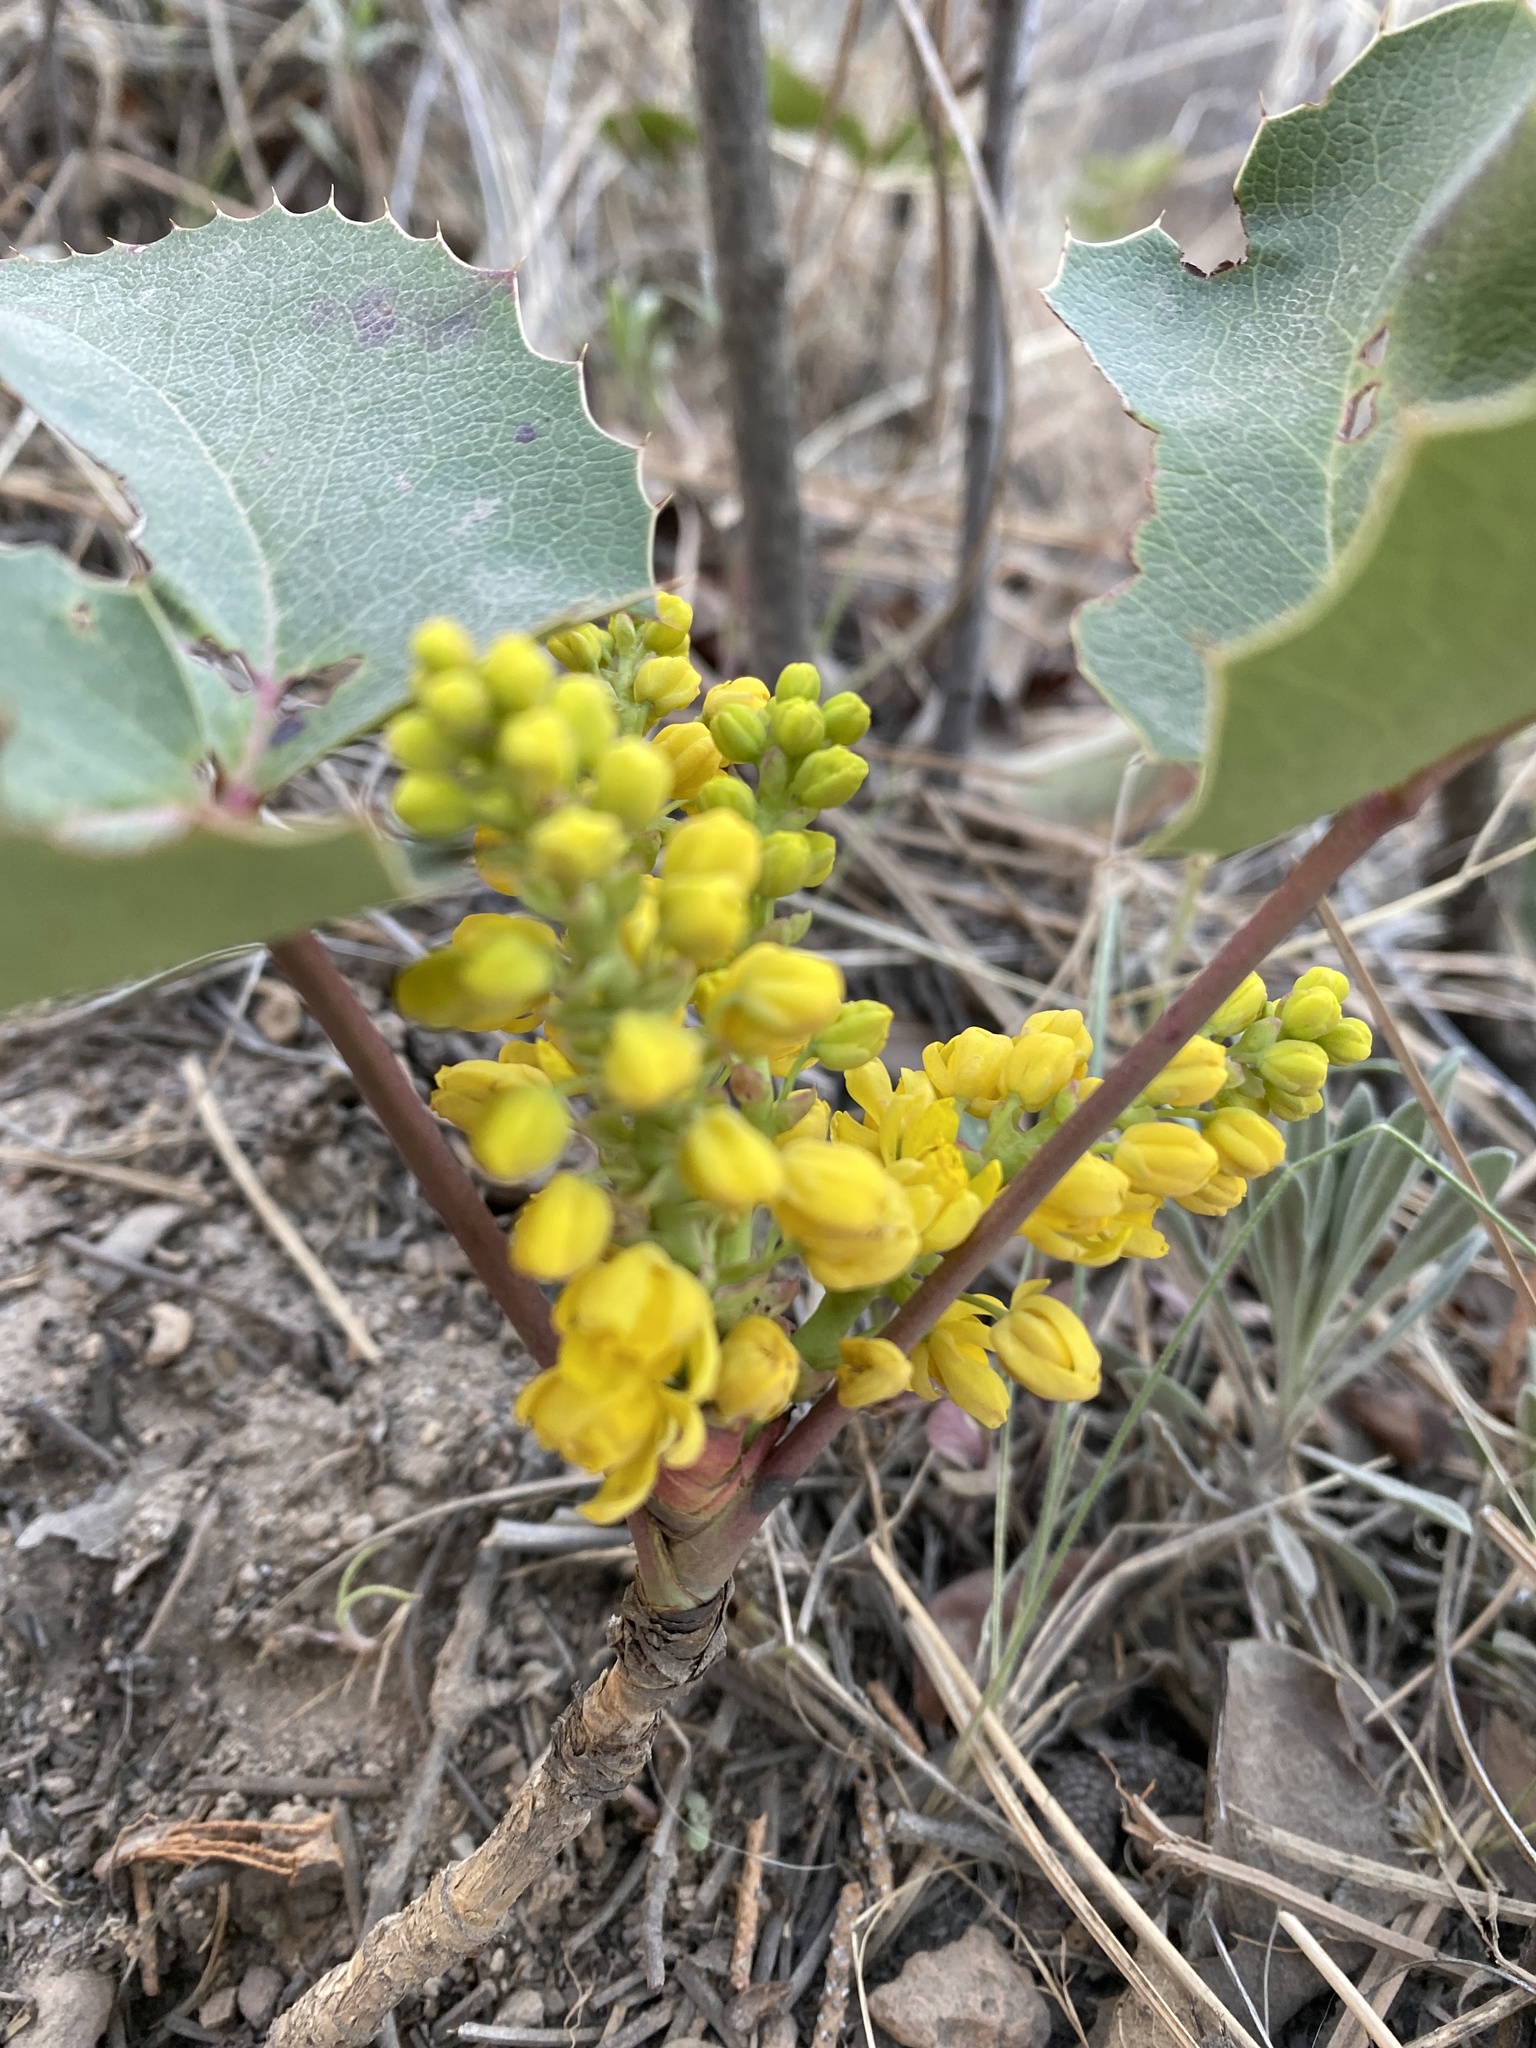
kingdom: Plantae
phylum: Tracheophyta
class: Magnoliopsida
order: Ranunculales
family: Berberidaceae
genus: Mahonia
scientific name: Mahonia repens
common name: Creeping oregon-grape
